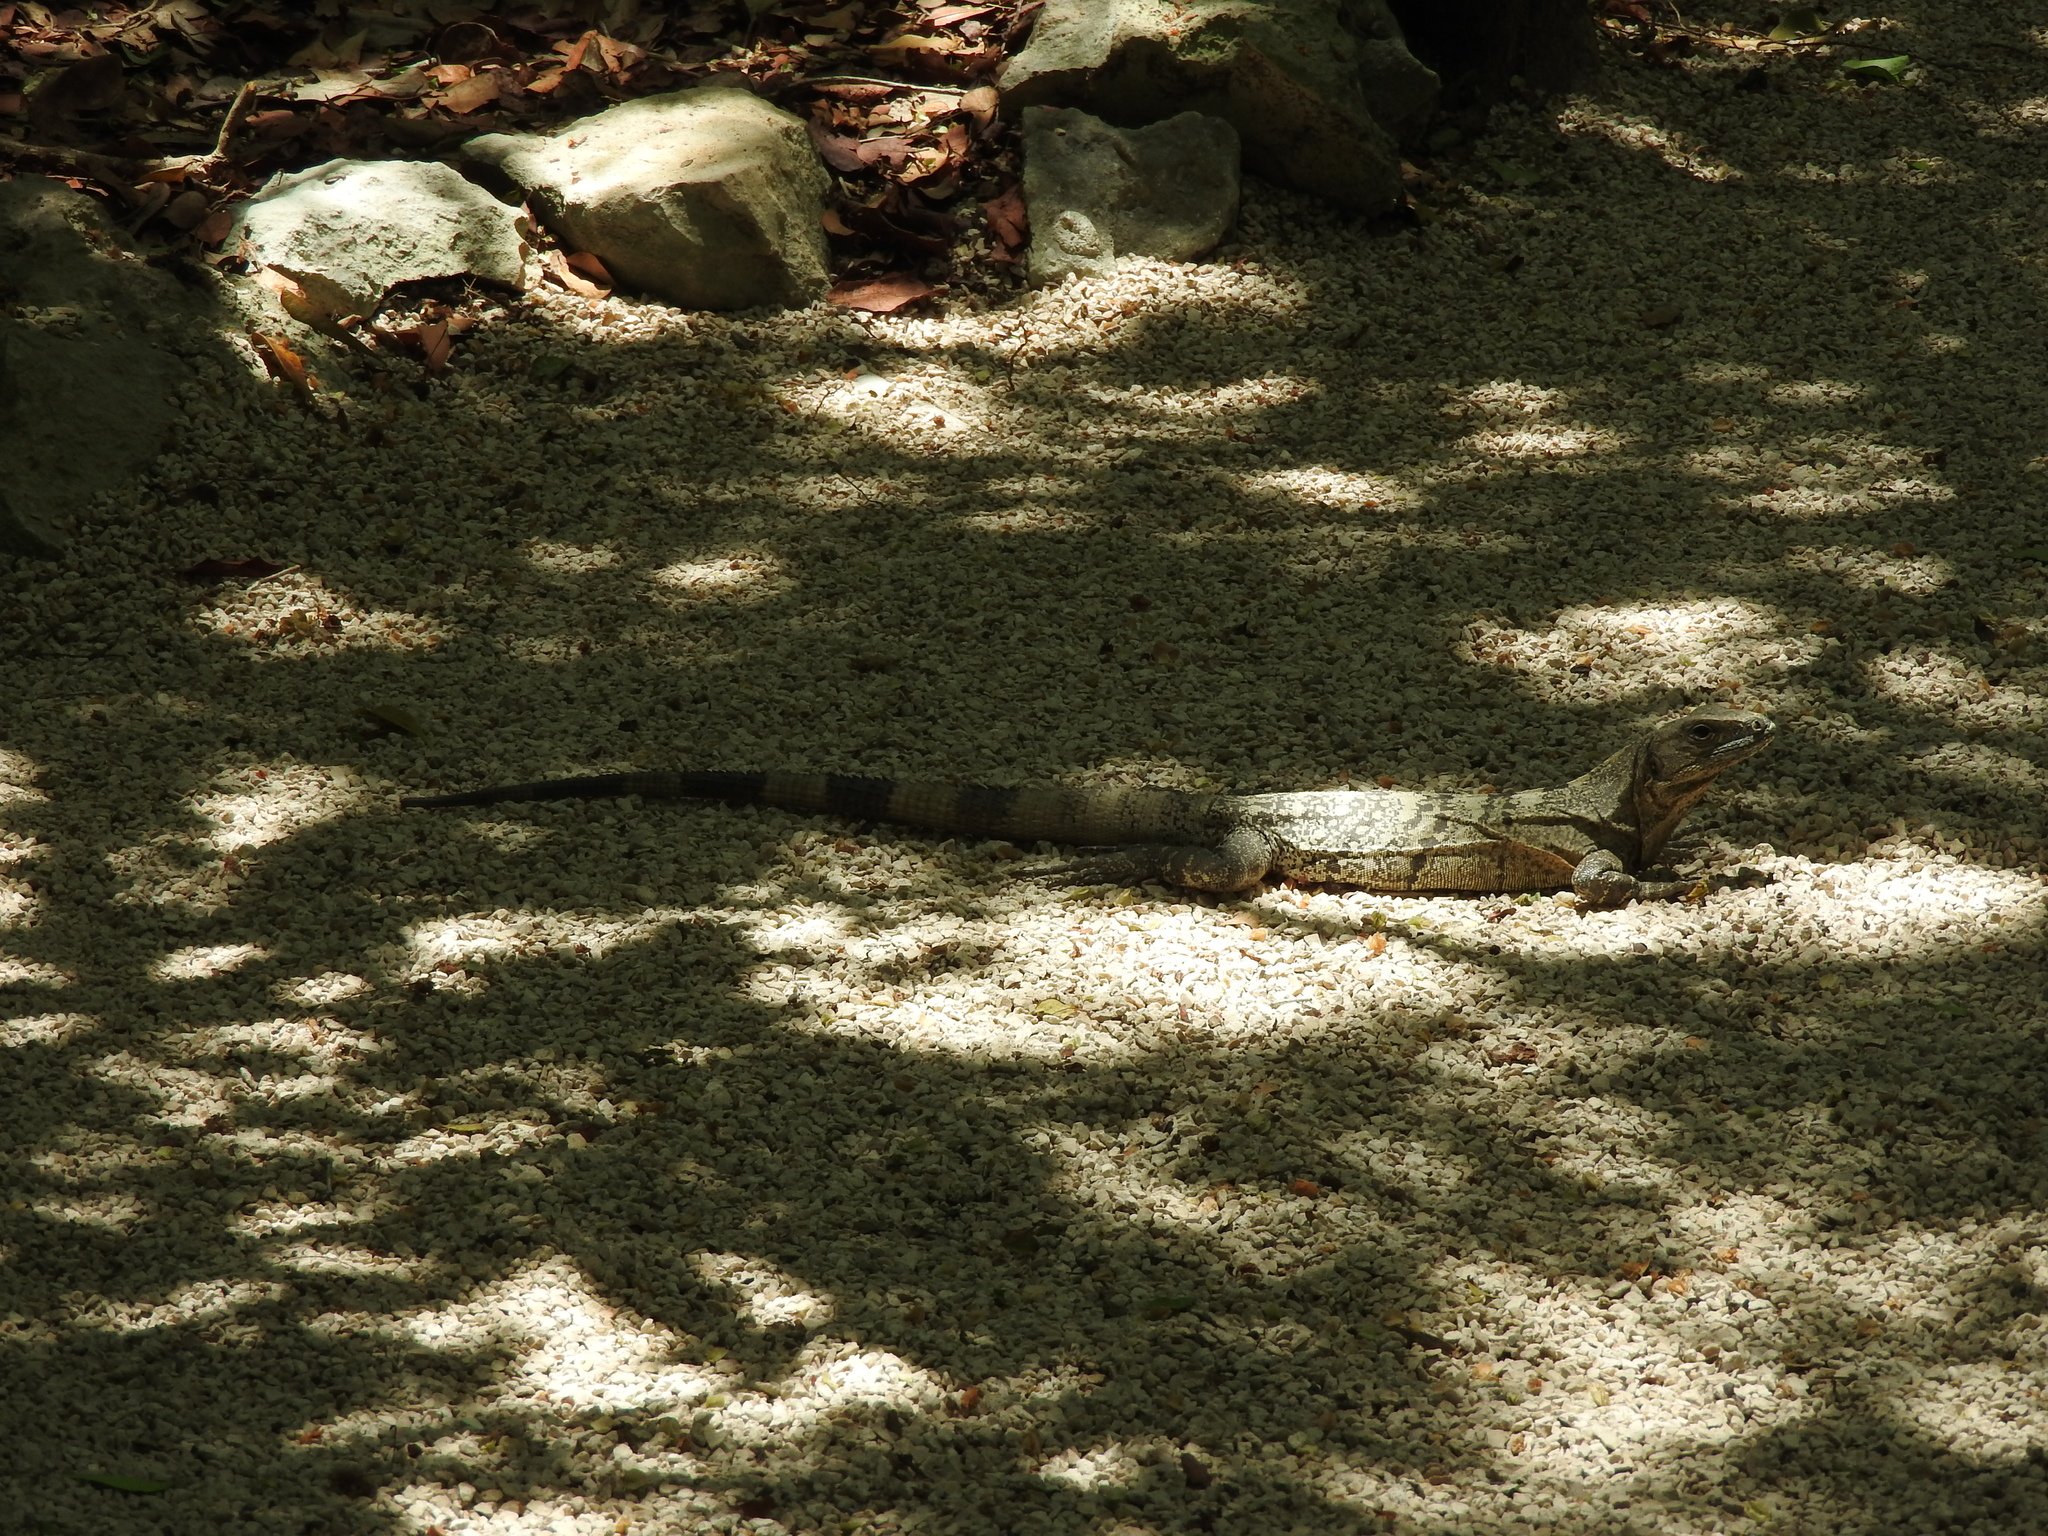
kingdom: Animalia
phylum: Chordata
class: Squamata
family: Iguanidae
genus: Ctenosaura
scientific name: Ctenosaura similis
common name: Black spiny-tailed iguana
